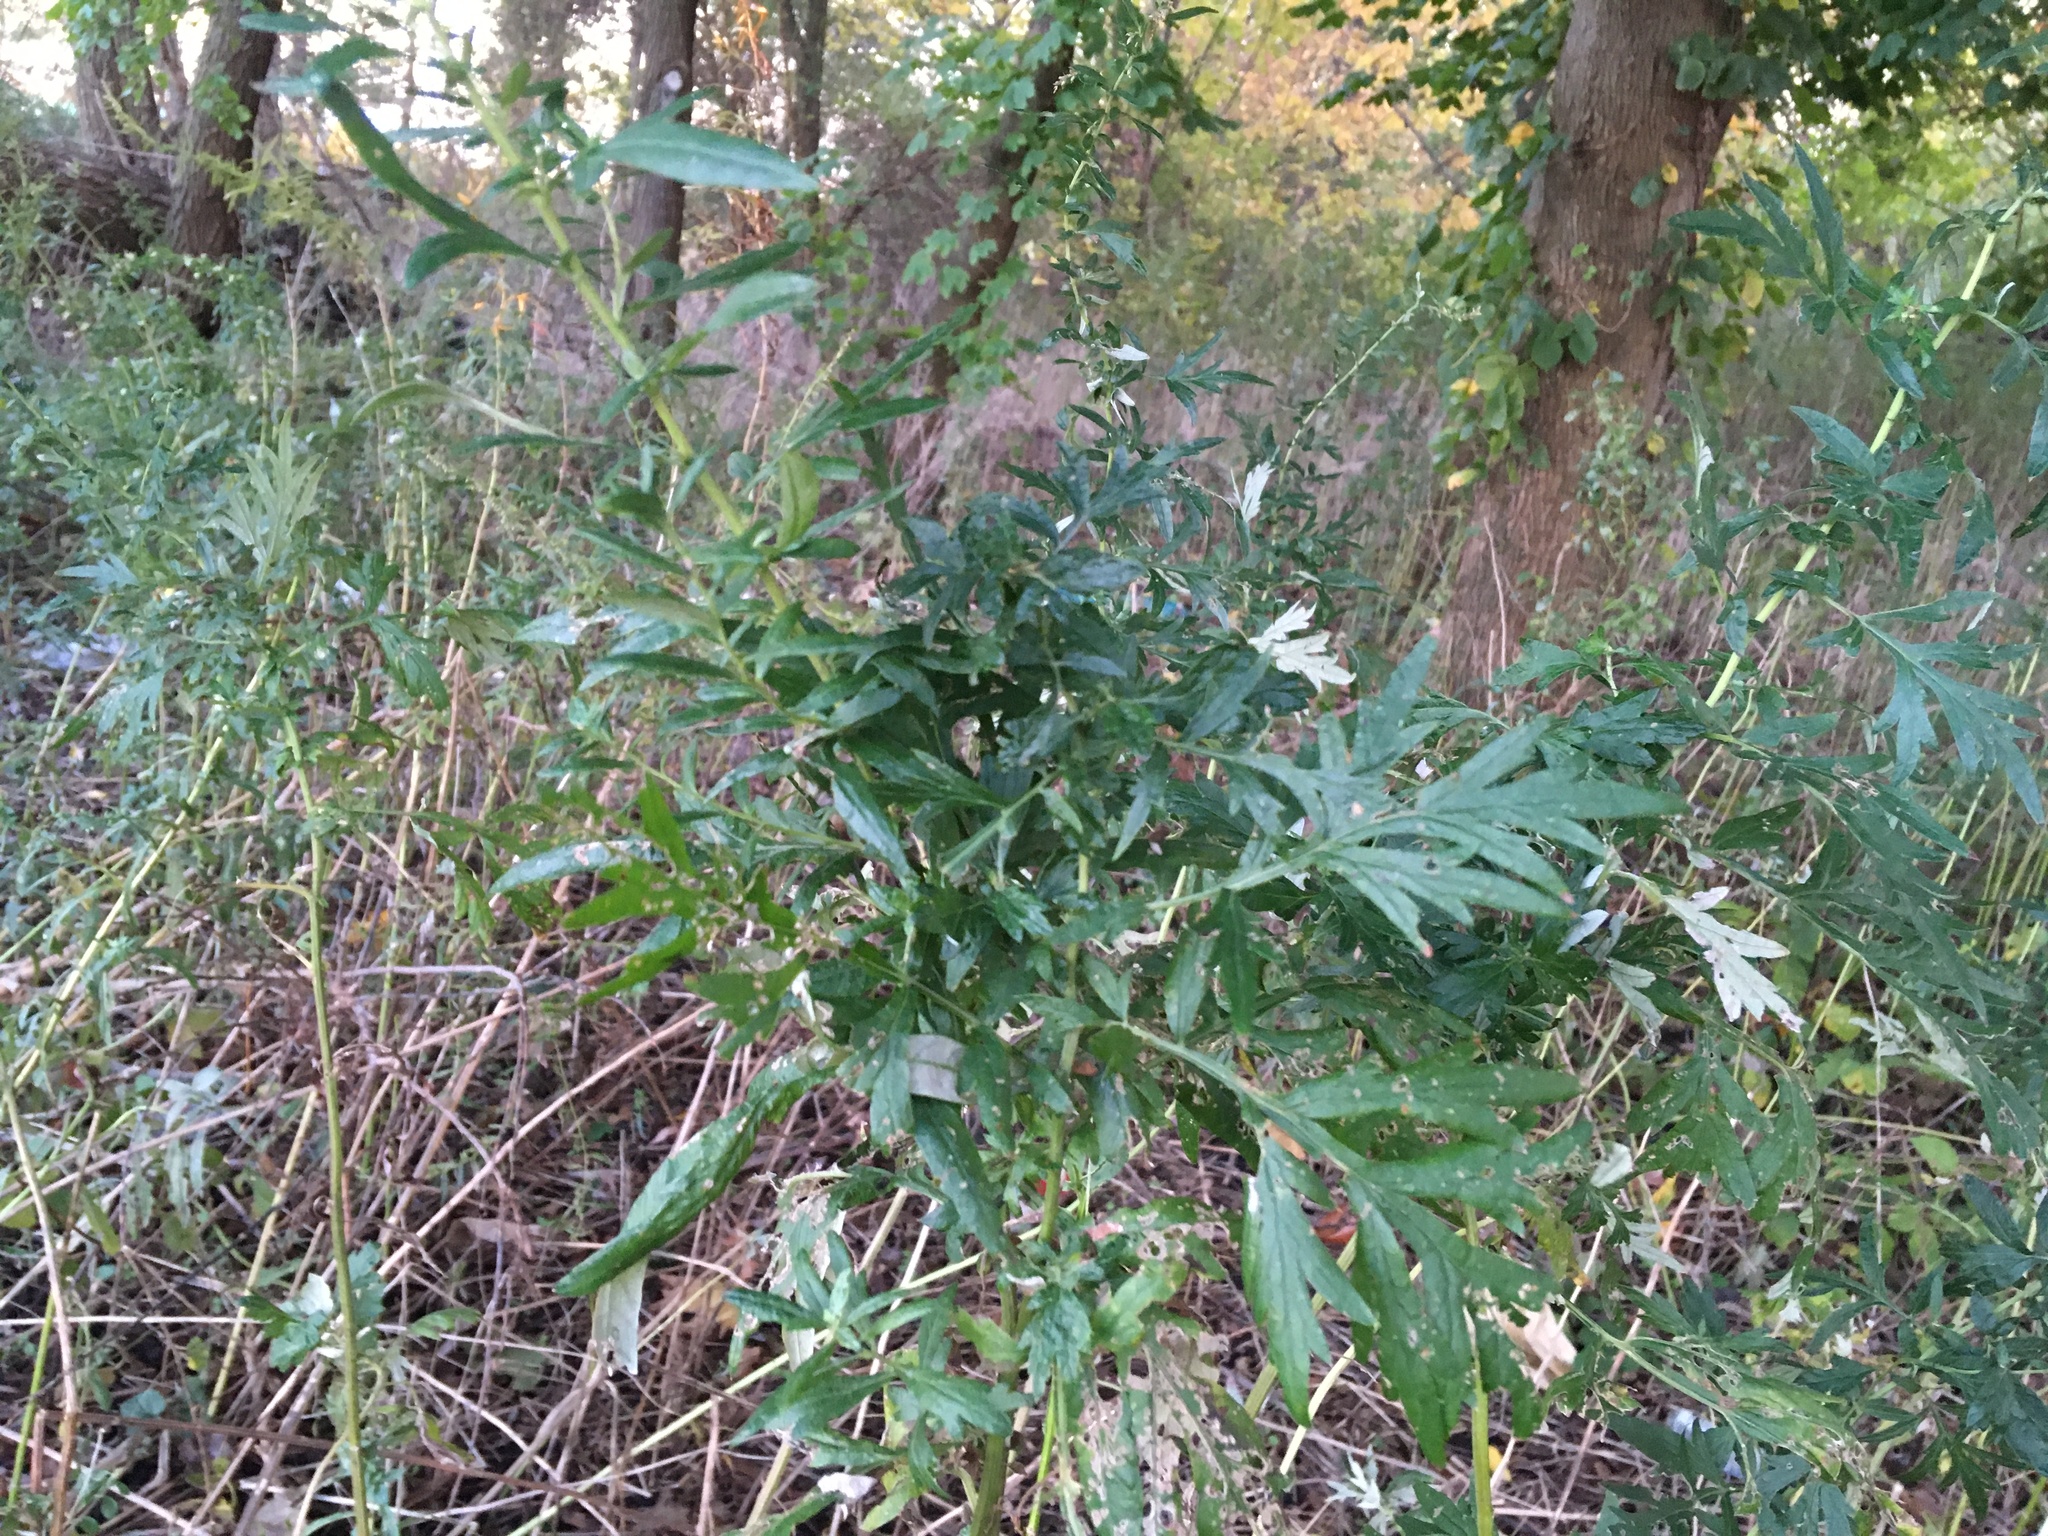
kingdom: Plantae
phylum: Tracheophyta
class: Magnoliopsida
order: Asterales
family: Asteraceae
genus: Artemisia
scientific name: Artemisia vulgaris
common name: Mugwort
